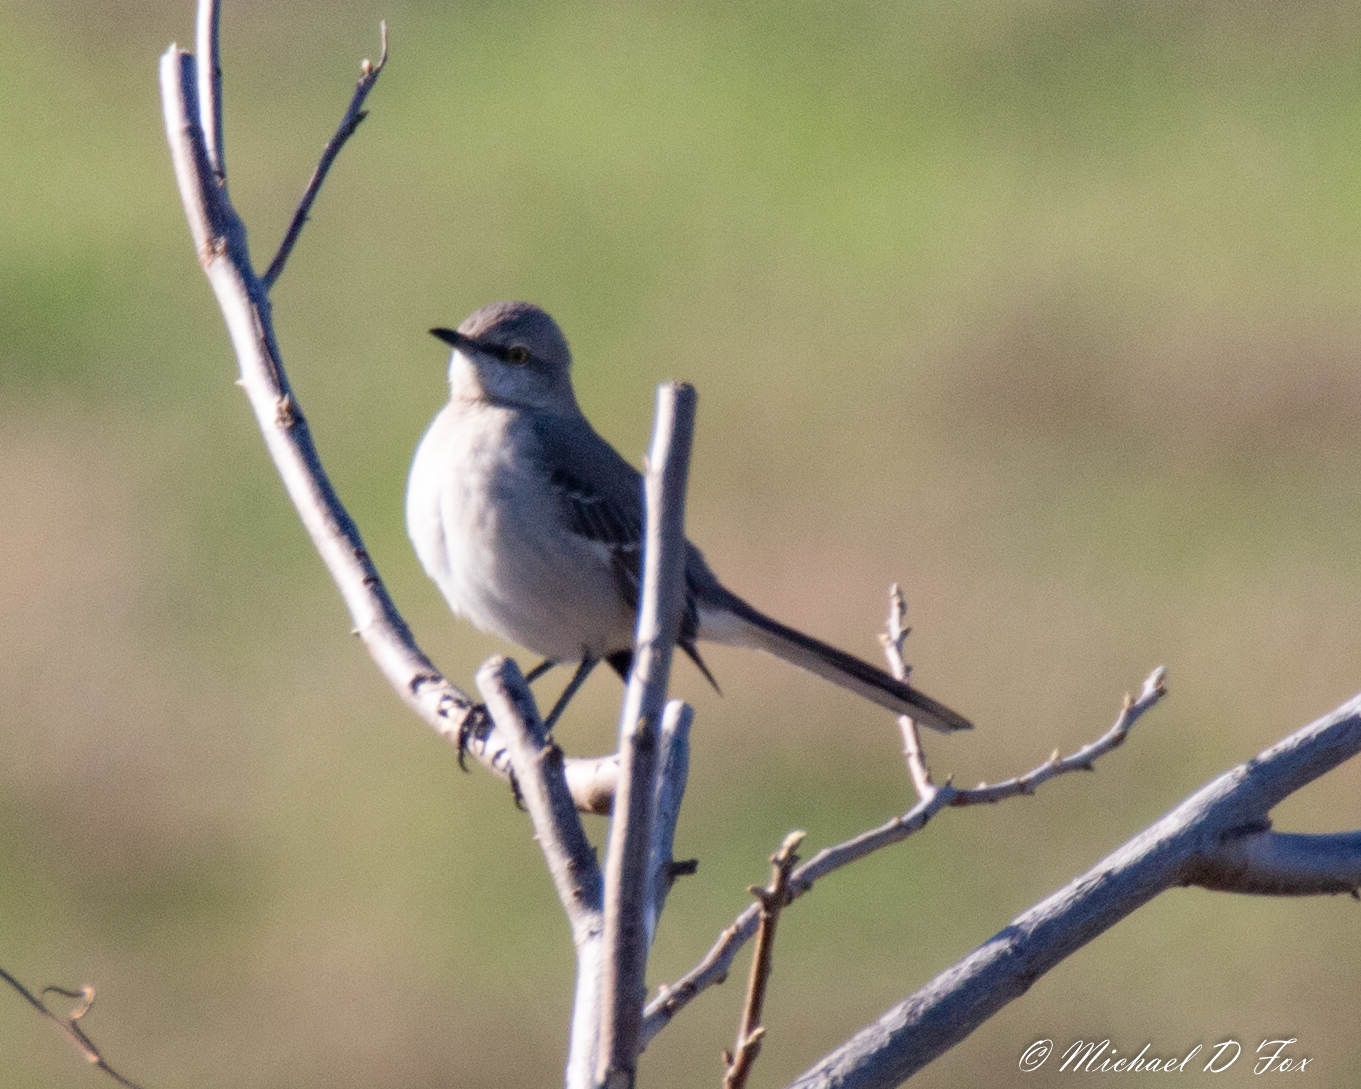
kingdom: Animalia
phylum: Chordata
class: Aves
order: Passeriformes
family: Mimidae
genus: Mimus
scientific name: Mimus polyglottos
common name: Northern mockingbird
